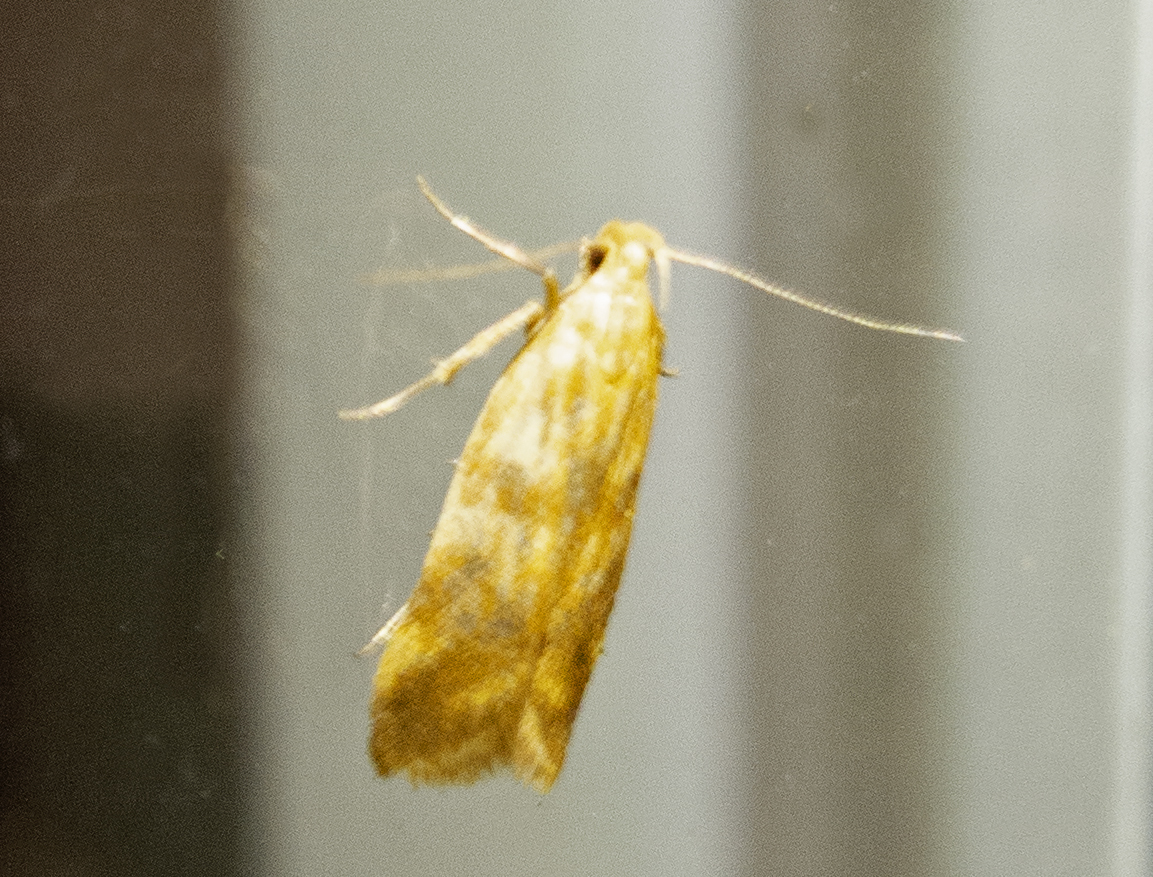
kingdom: Animalia
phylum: Arthropoda
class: Insecta
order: Lepidoptera
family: Gelechiidae
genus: Mirificarma
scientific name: Mirificarma eburnella
